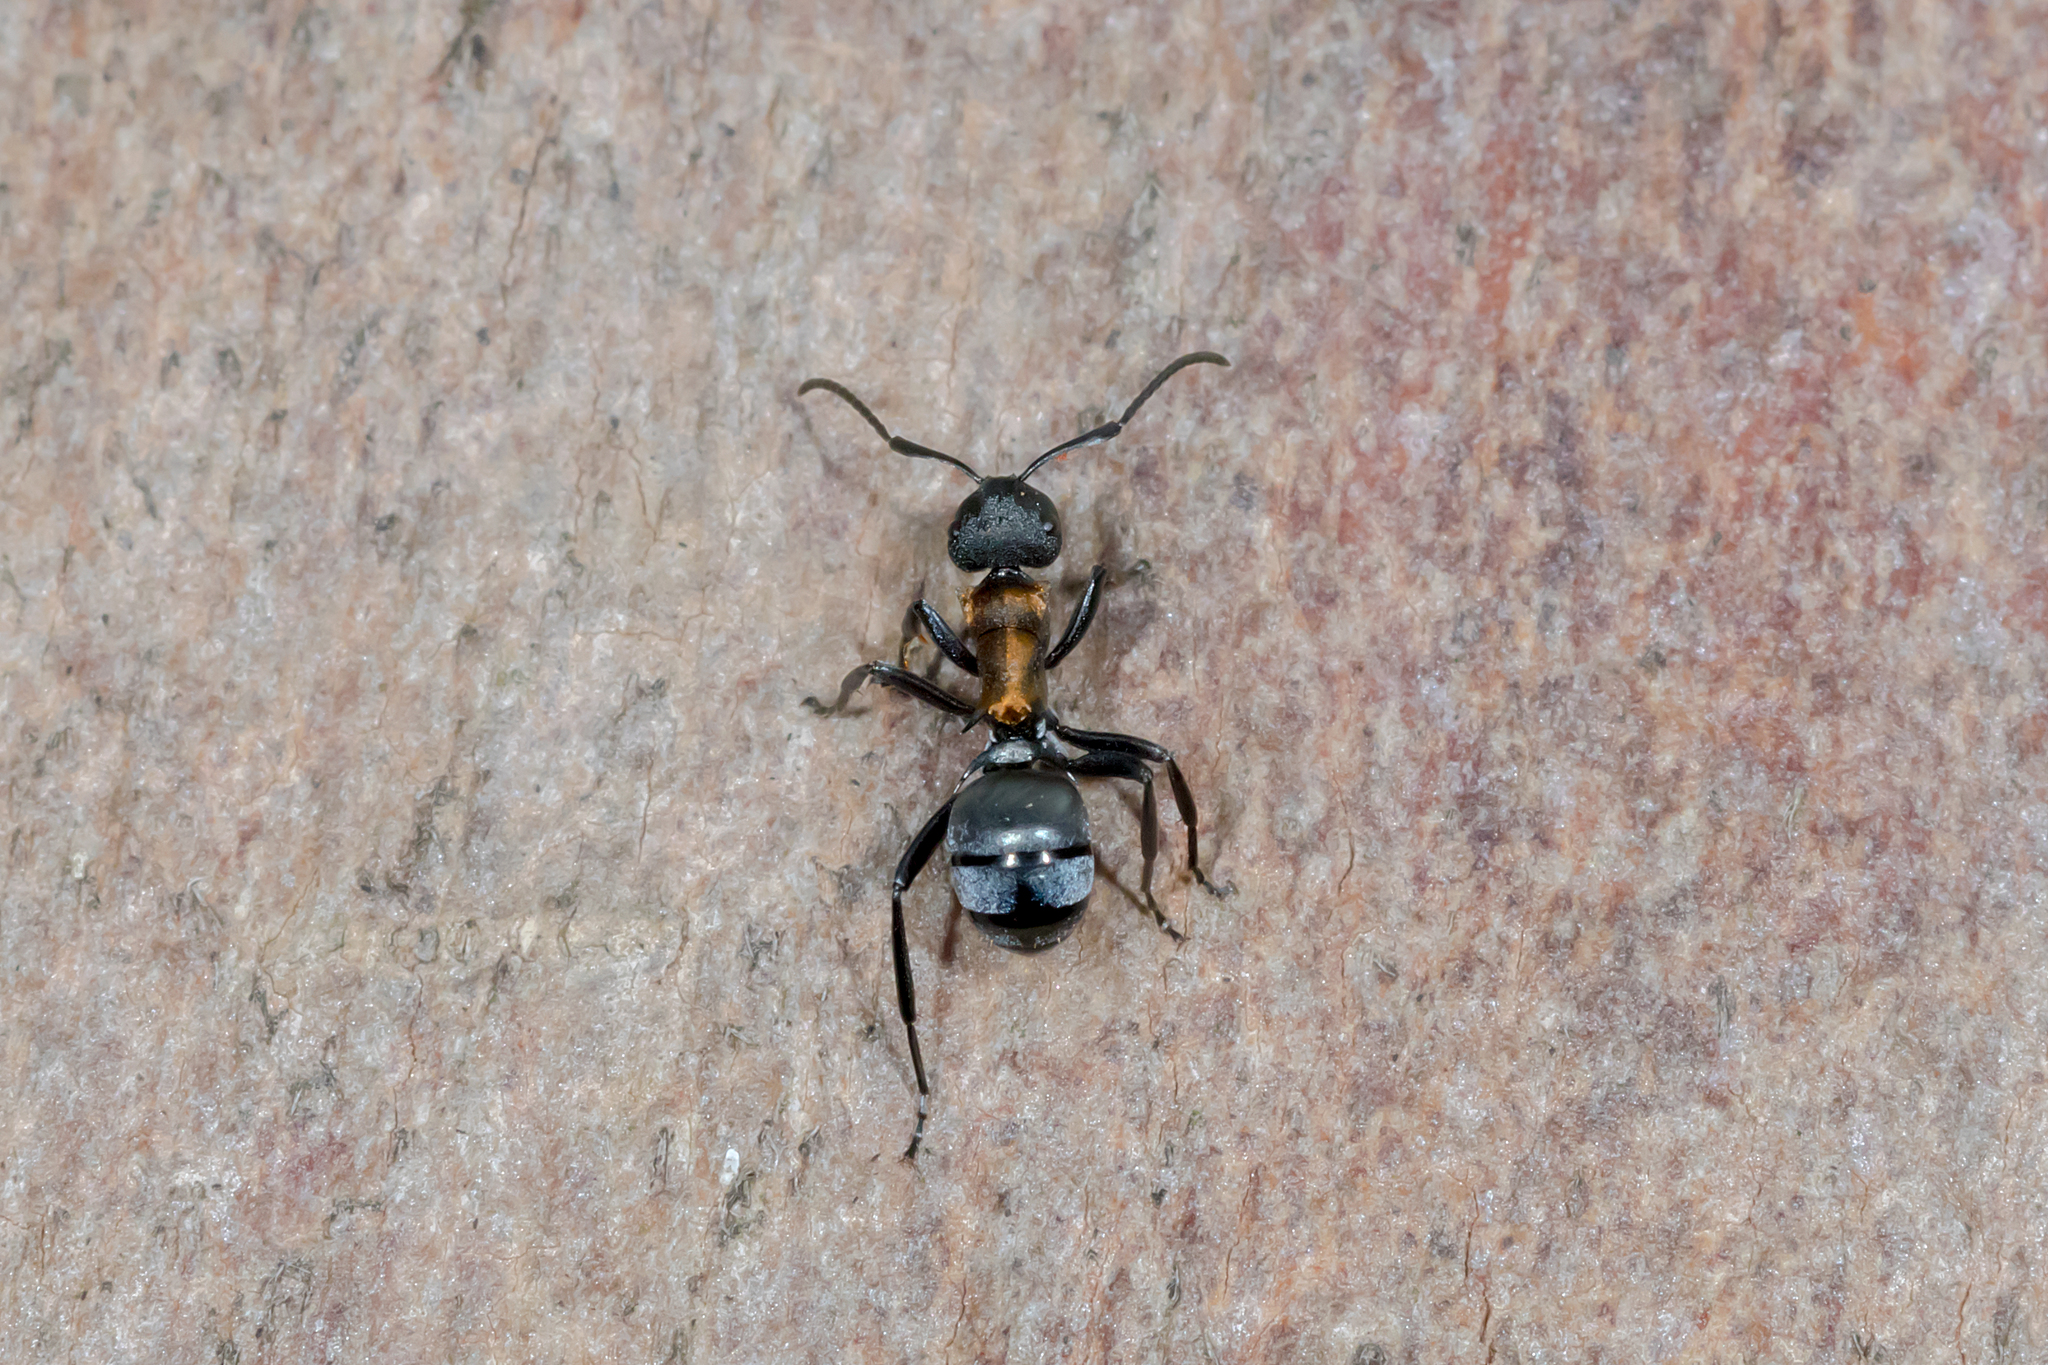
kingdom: Animalia
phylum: Arthropoda
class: Insecta
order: Hymenoptera
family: Formicidae
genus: Polyrhachis
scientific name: Polyrhachis ornata
